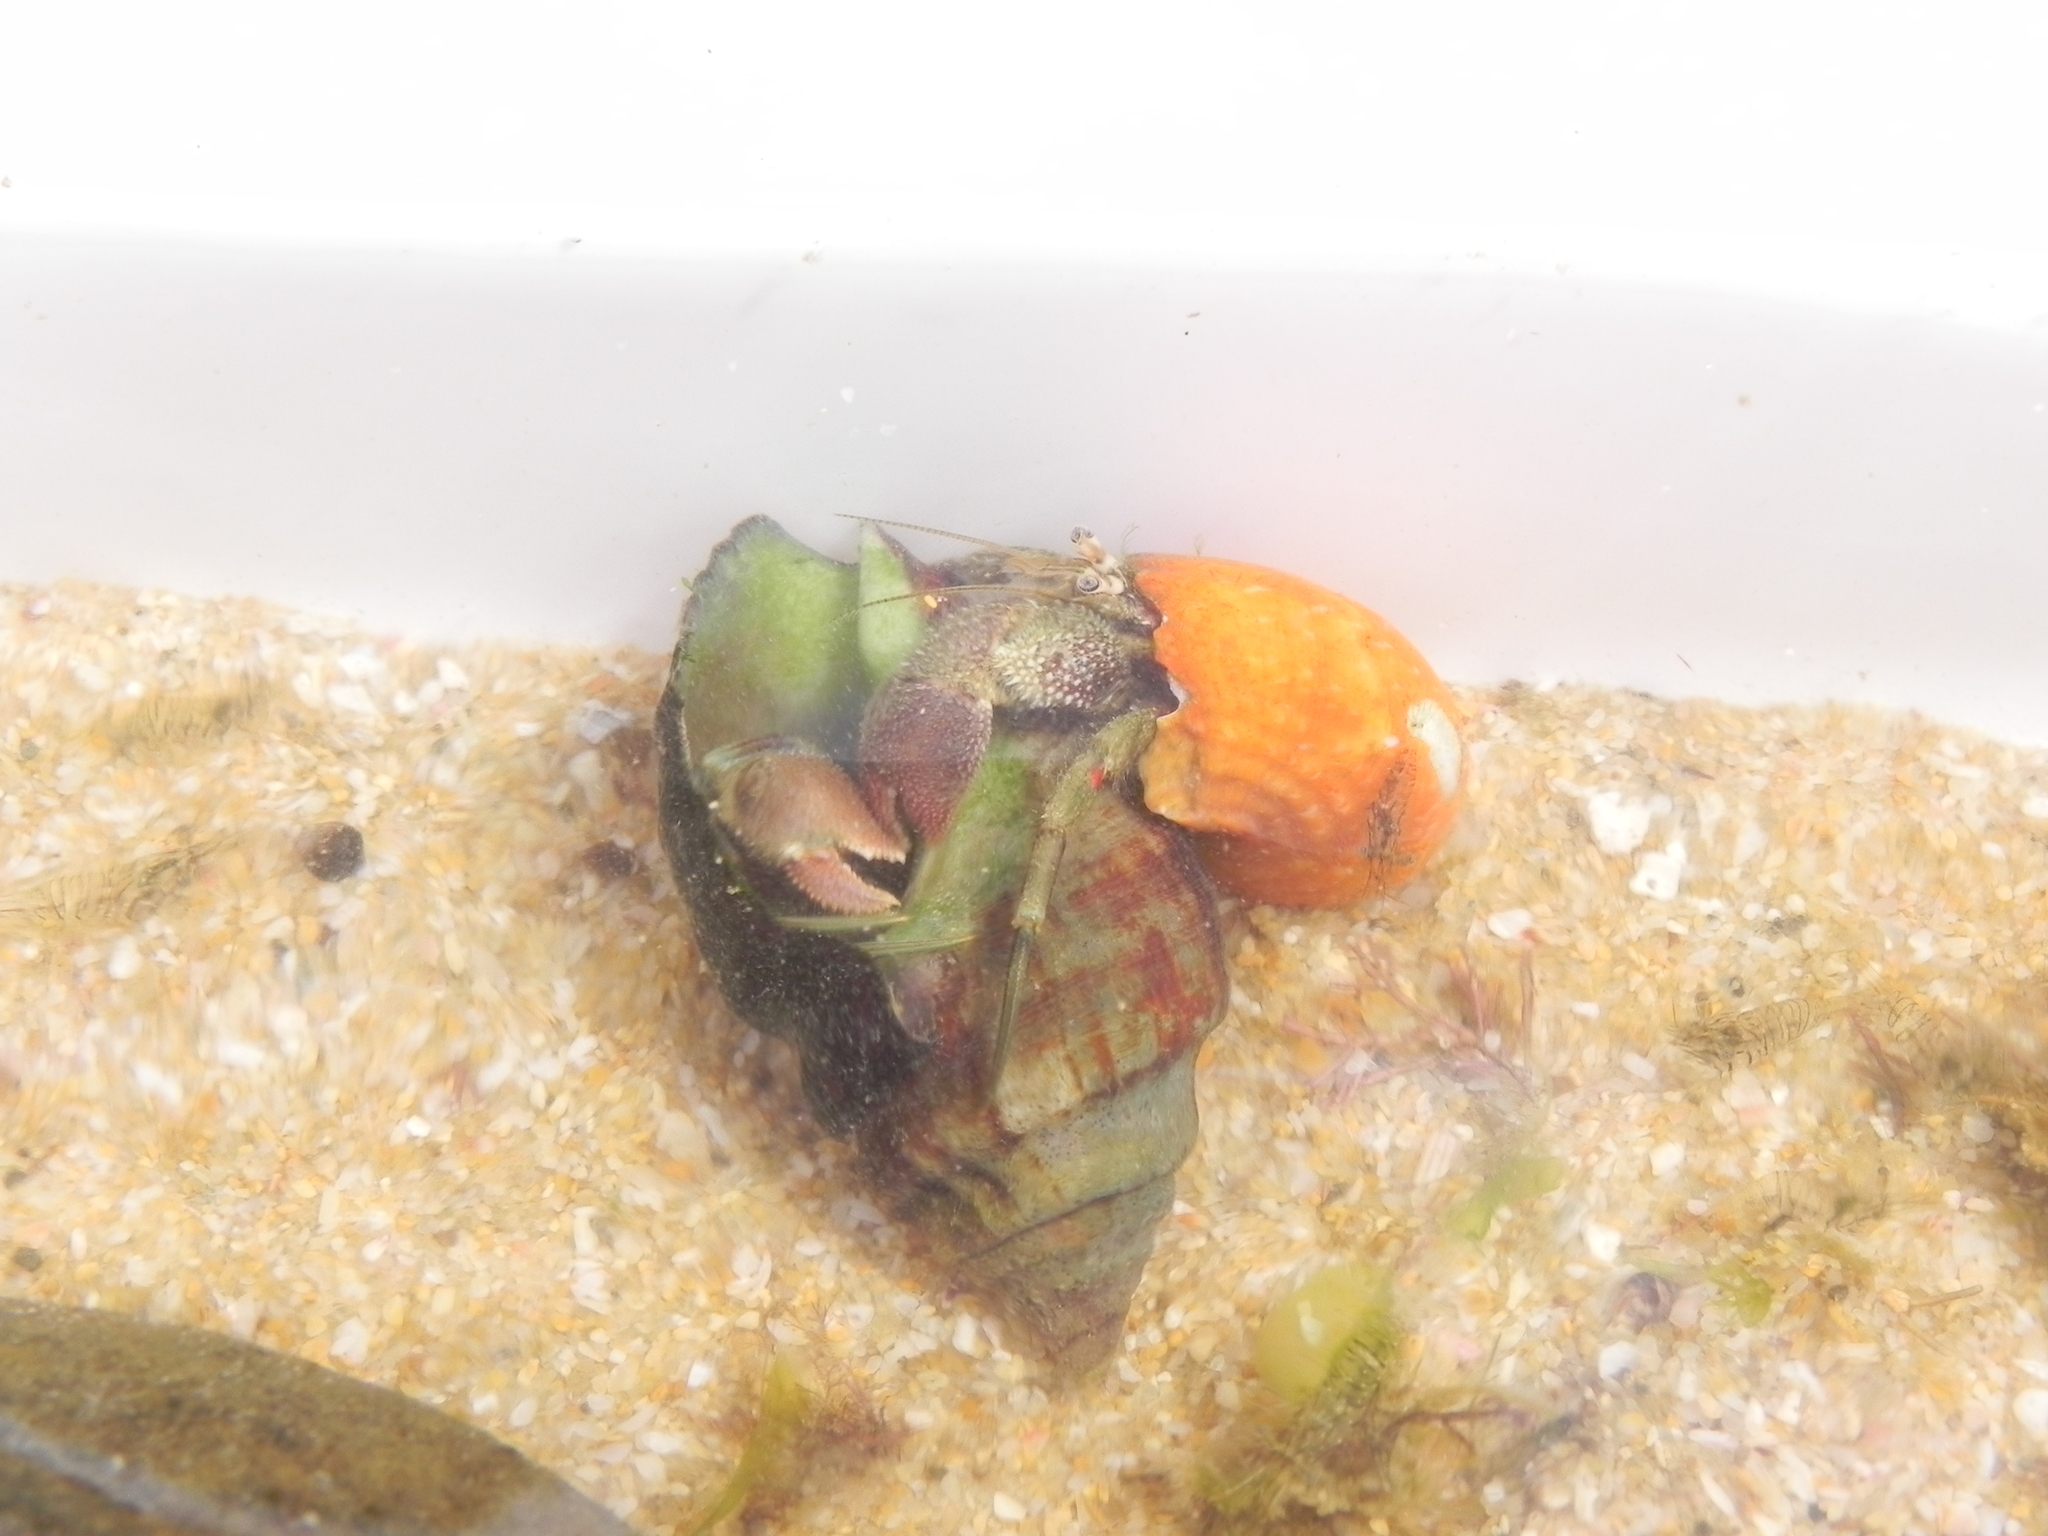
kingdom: Animalia
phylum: Arthropoda
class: Malacostraca
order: Decapoda
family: Diogenidae
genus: Diogenes
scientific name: Diogenes brevirostris
